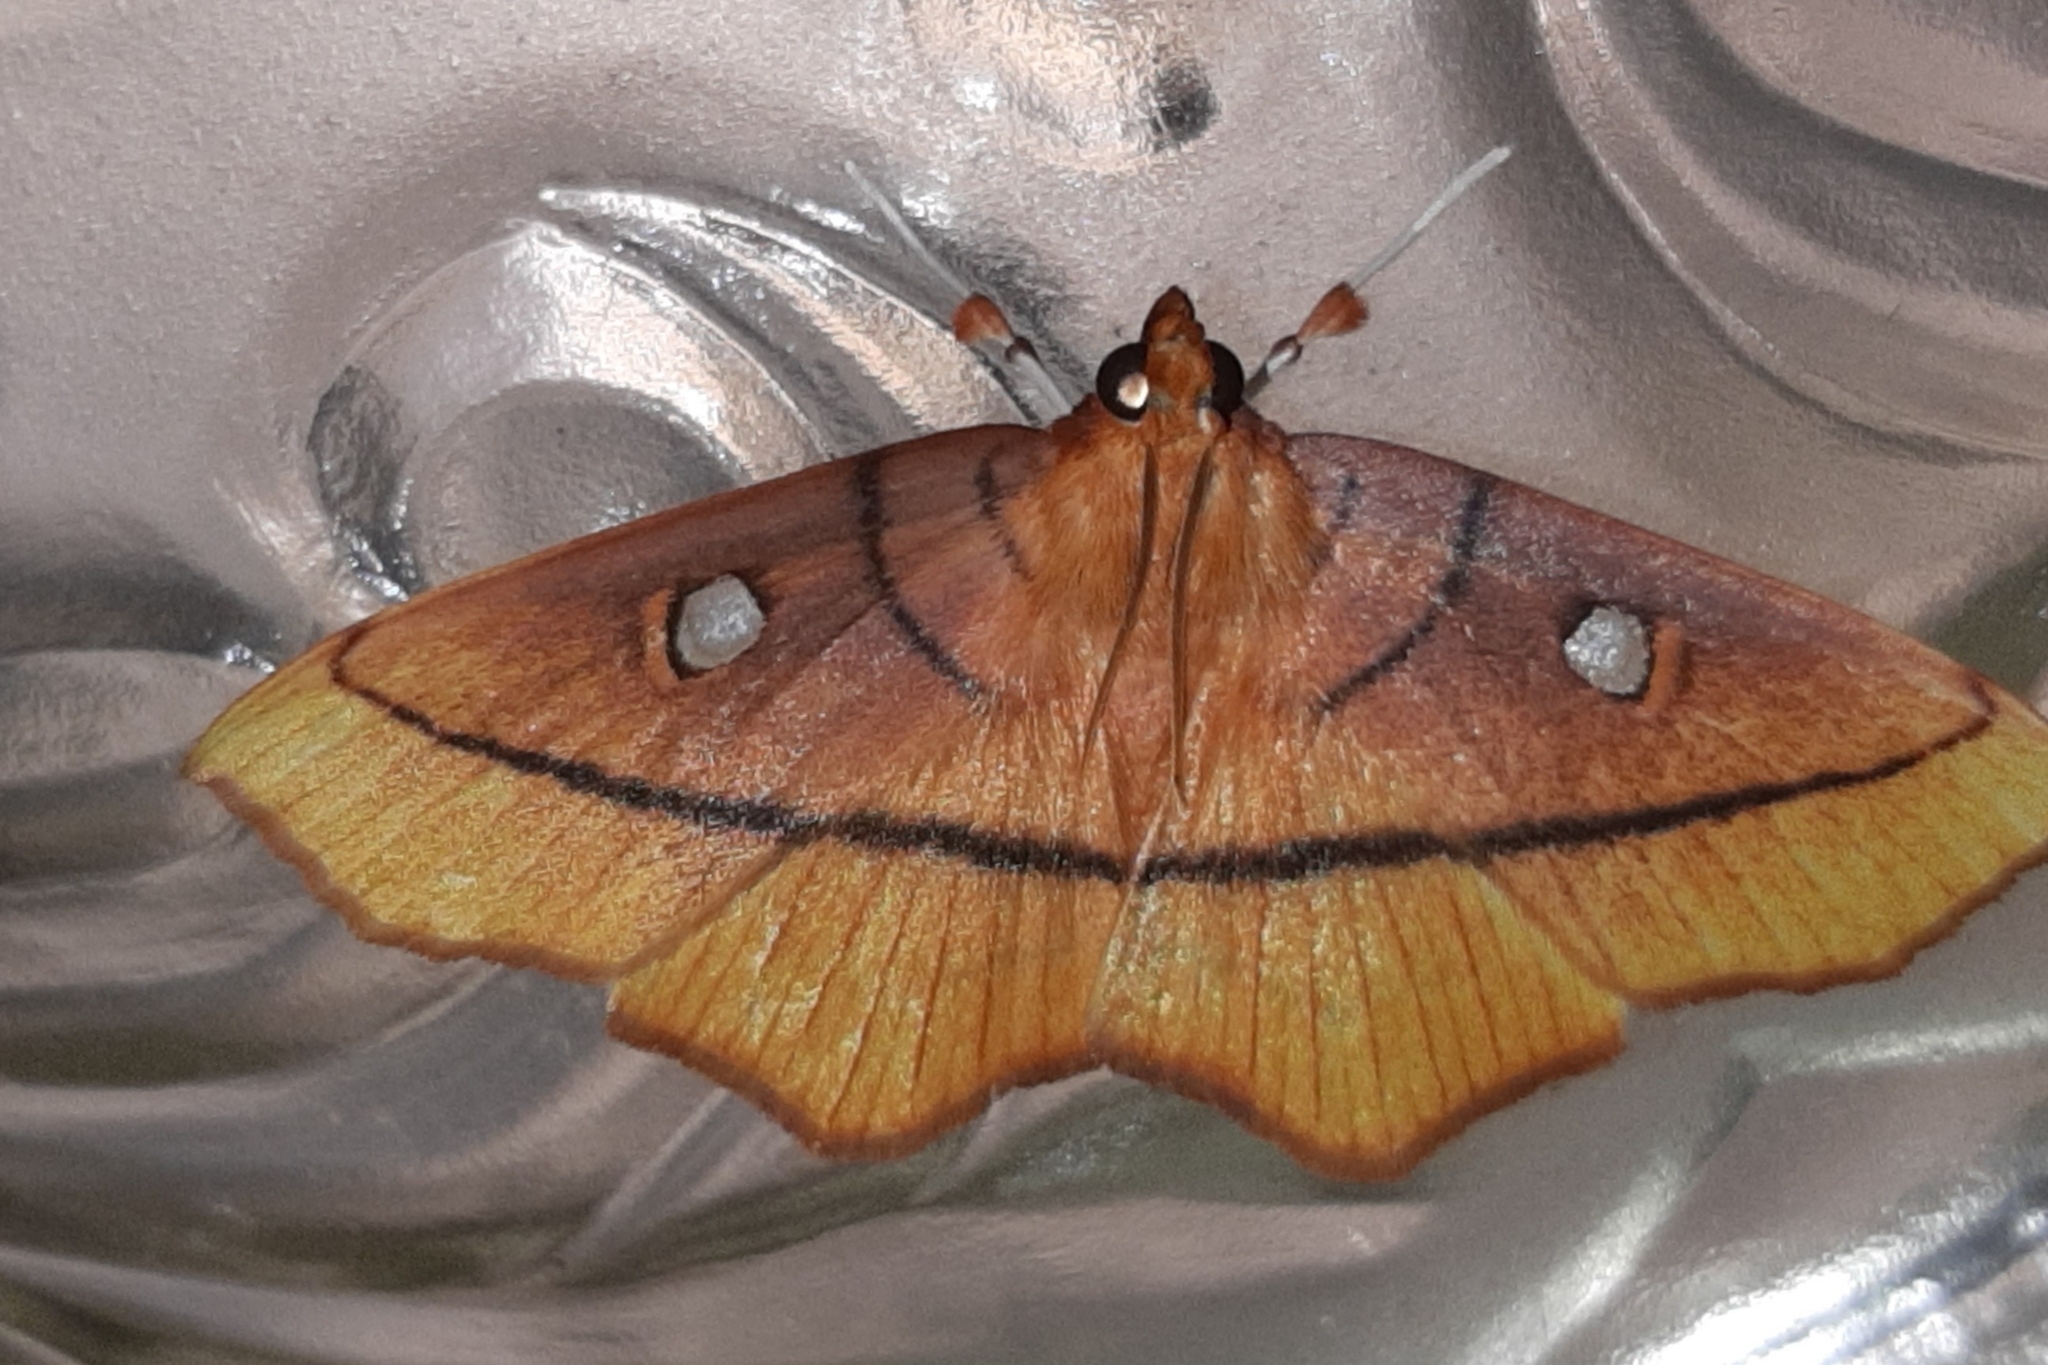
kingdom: Animalia
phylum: Arthropoda
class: Insecta
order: Lepidoptera
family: Crambidae
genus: Midila
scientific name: Midila daphne
